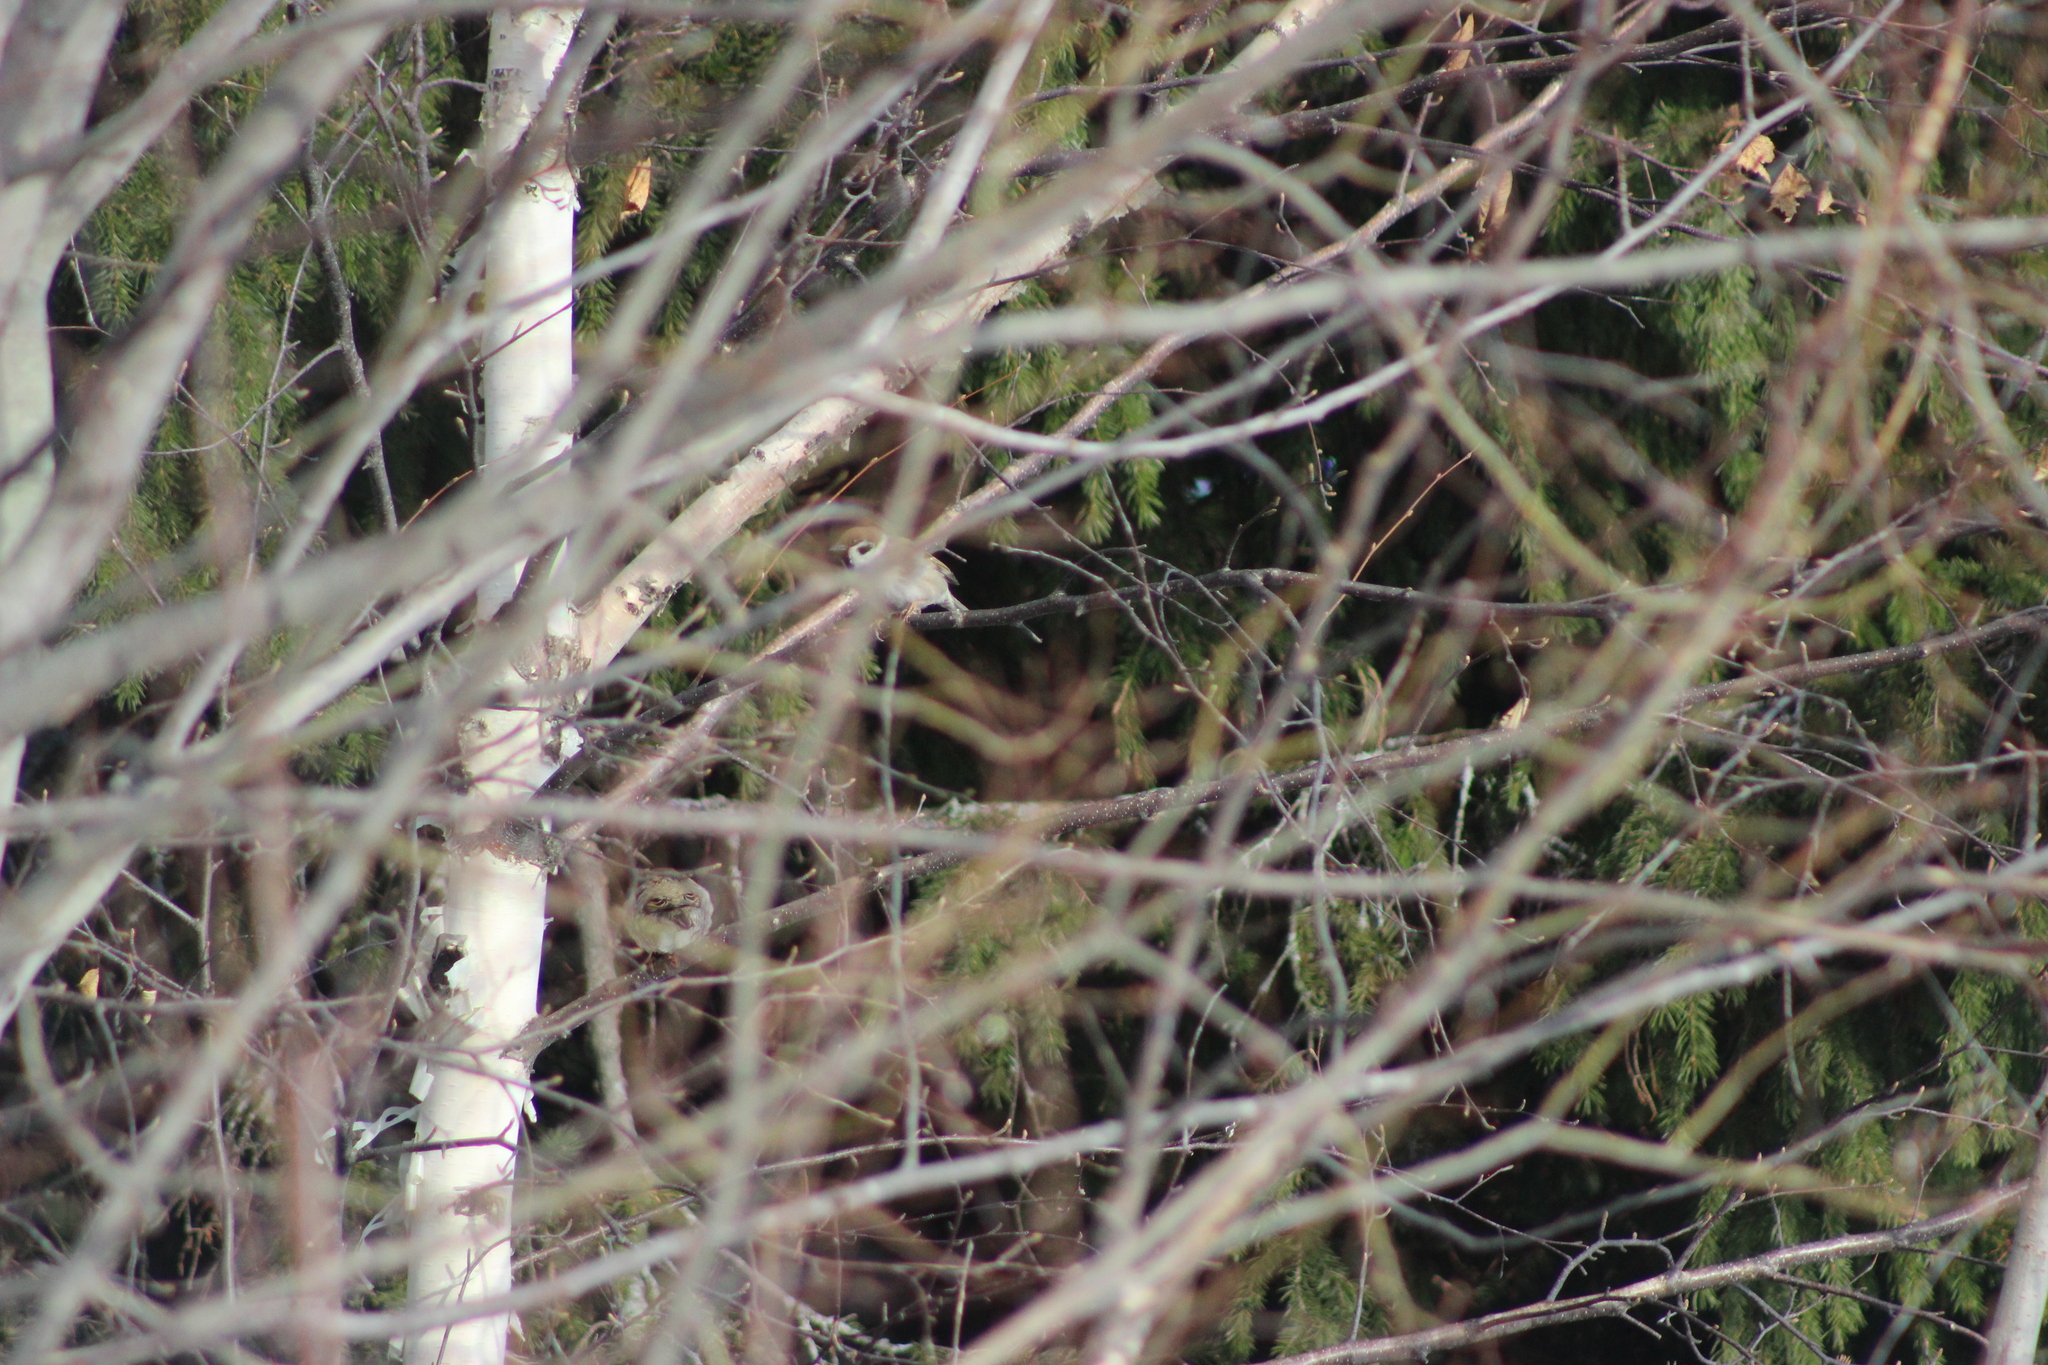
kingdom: Animalia
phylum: Chordata
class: Aves
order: Passeriformes
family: Passeridae
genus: Passer
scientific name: Passer montanus
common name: Eurasian tree sparrow
